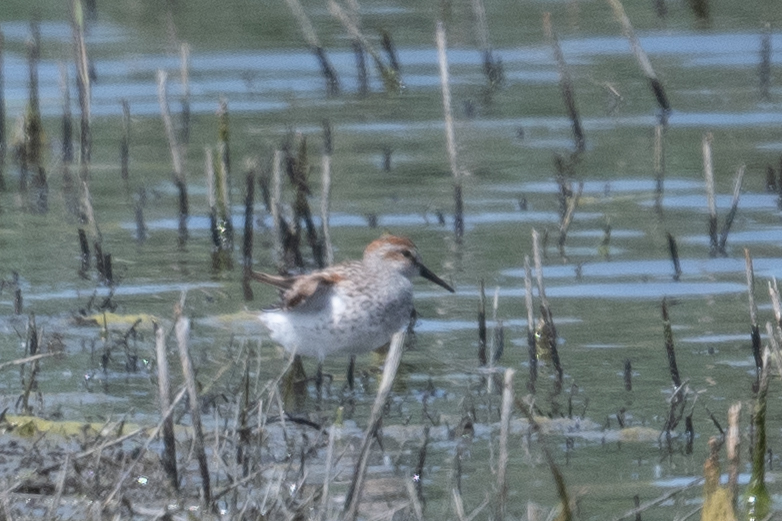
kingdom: Animalia
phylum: Chordata
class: Aves
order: Charadriiformes
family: Scolopacidae
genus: Calidris
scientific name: Calidris mauri
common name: Western sandpiper
